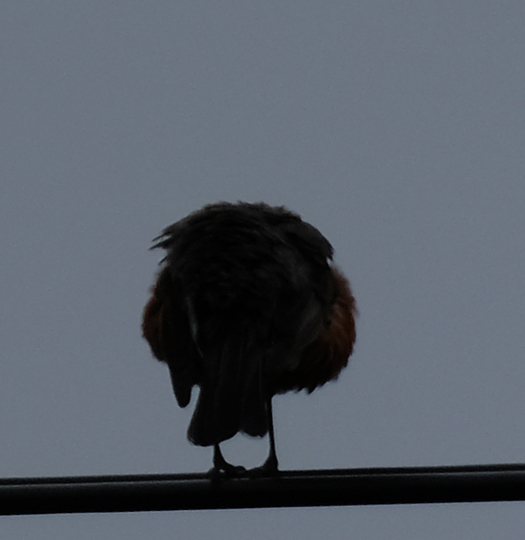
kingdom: Animalia
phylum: Chordata
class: Aves
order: Passeriformes
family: Turdidae
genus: Turdus
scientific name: Turdus migratorius
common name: American robin
